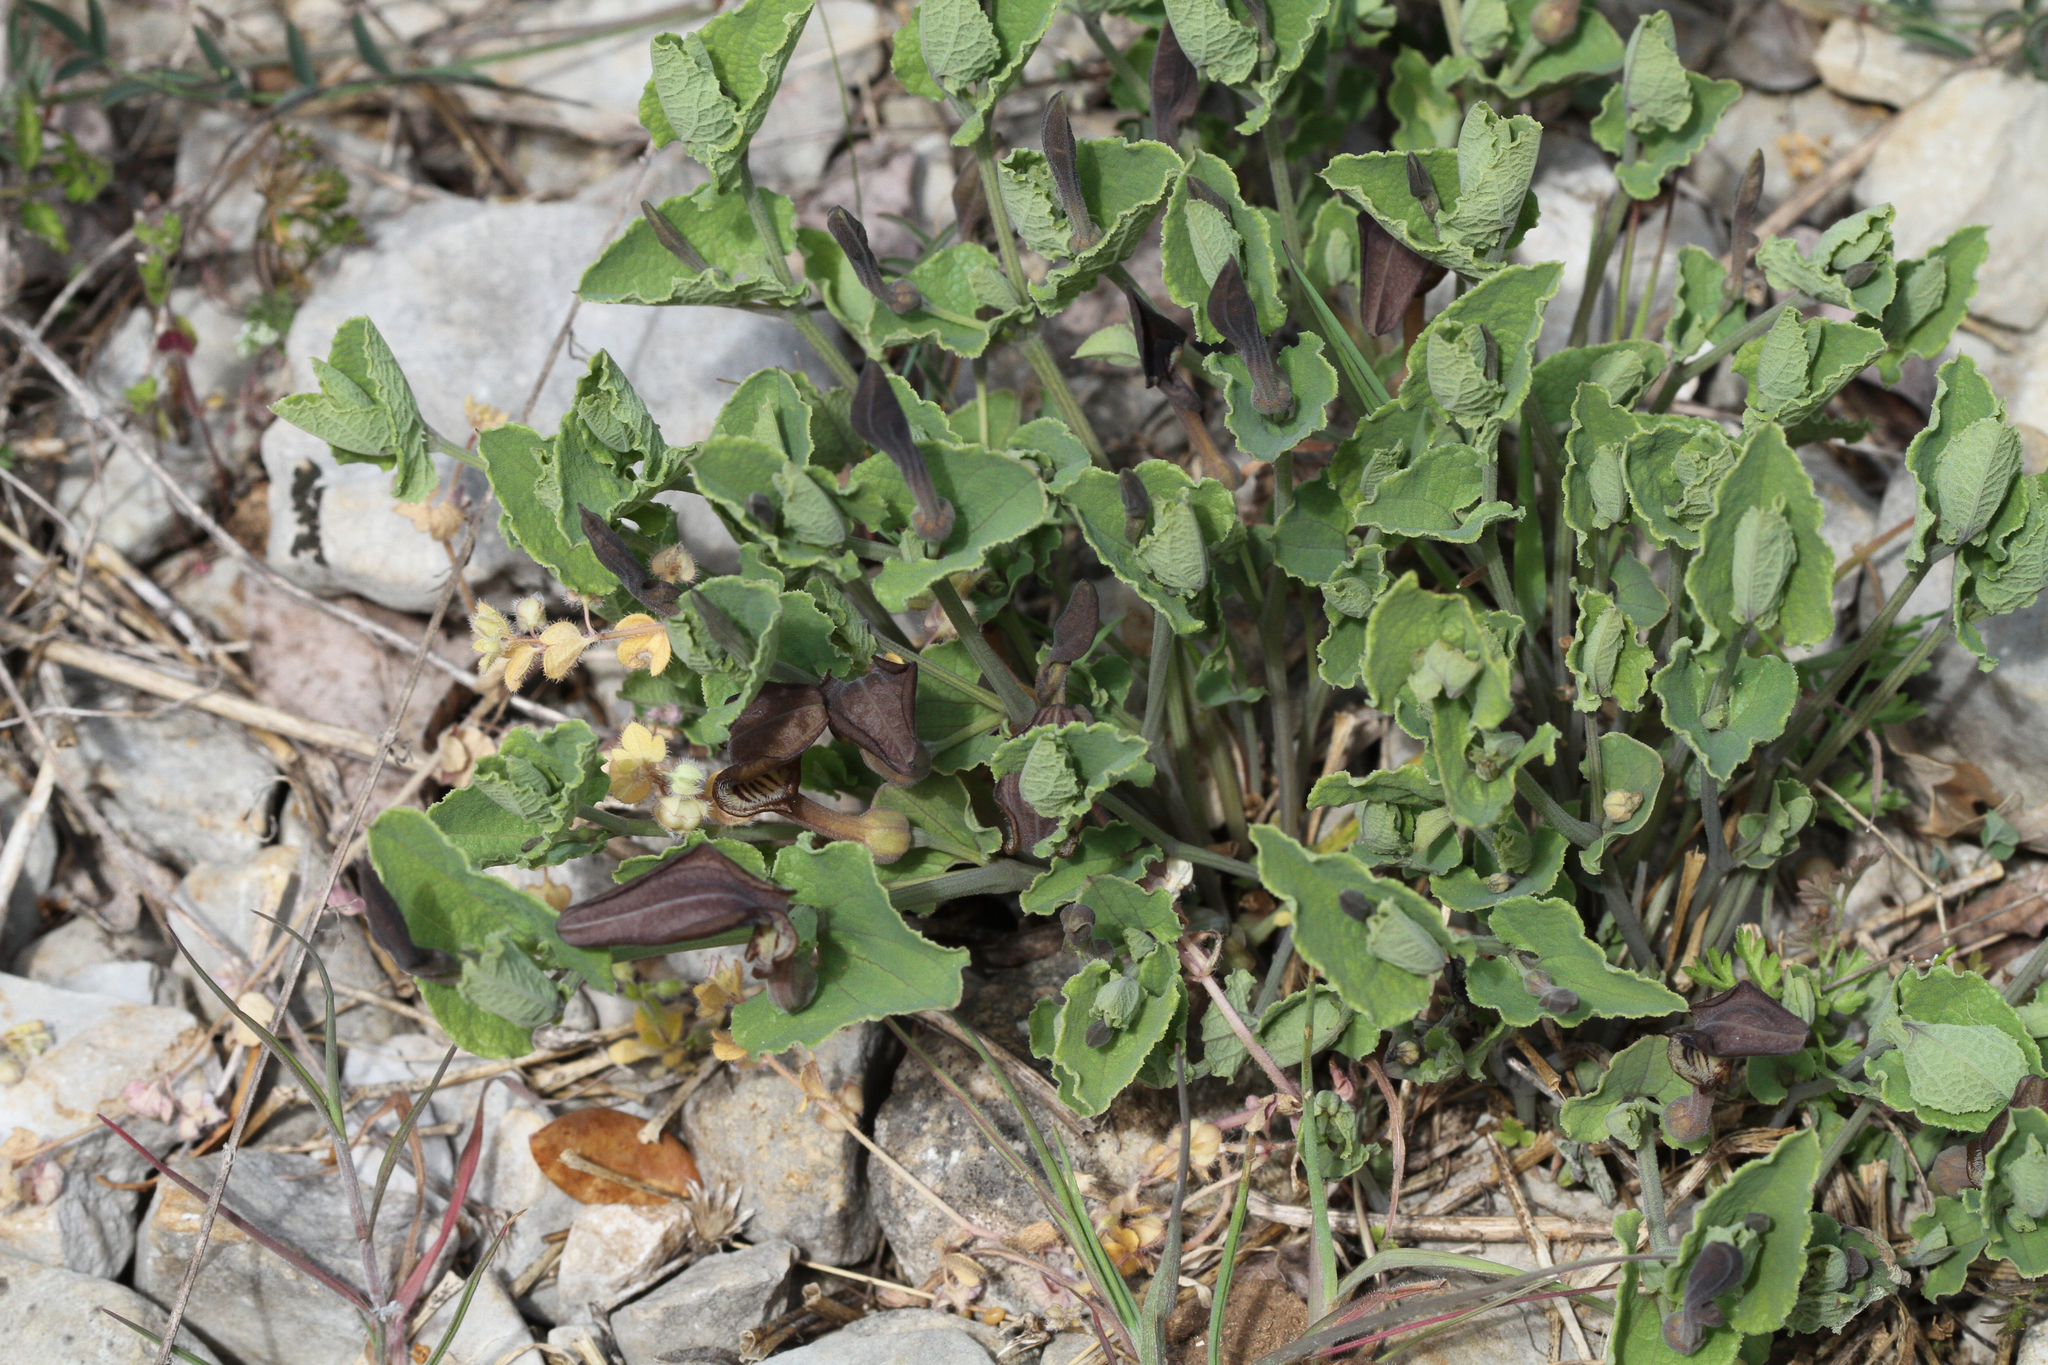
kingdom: Plantae
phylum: Tracheophyta
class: Magnoliopsida
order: Piperales
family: Aristolochiaceae
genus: Aristolochia
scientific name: Aristolochia pistolochia
